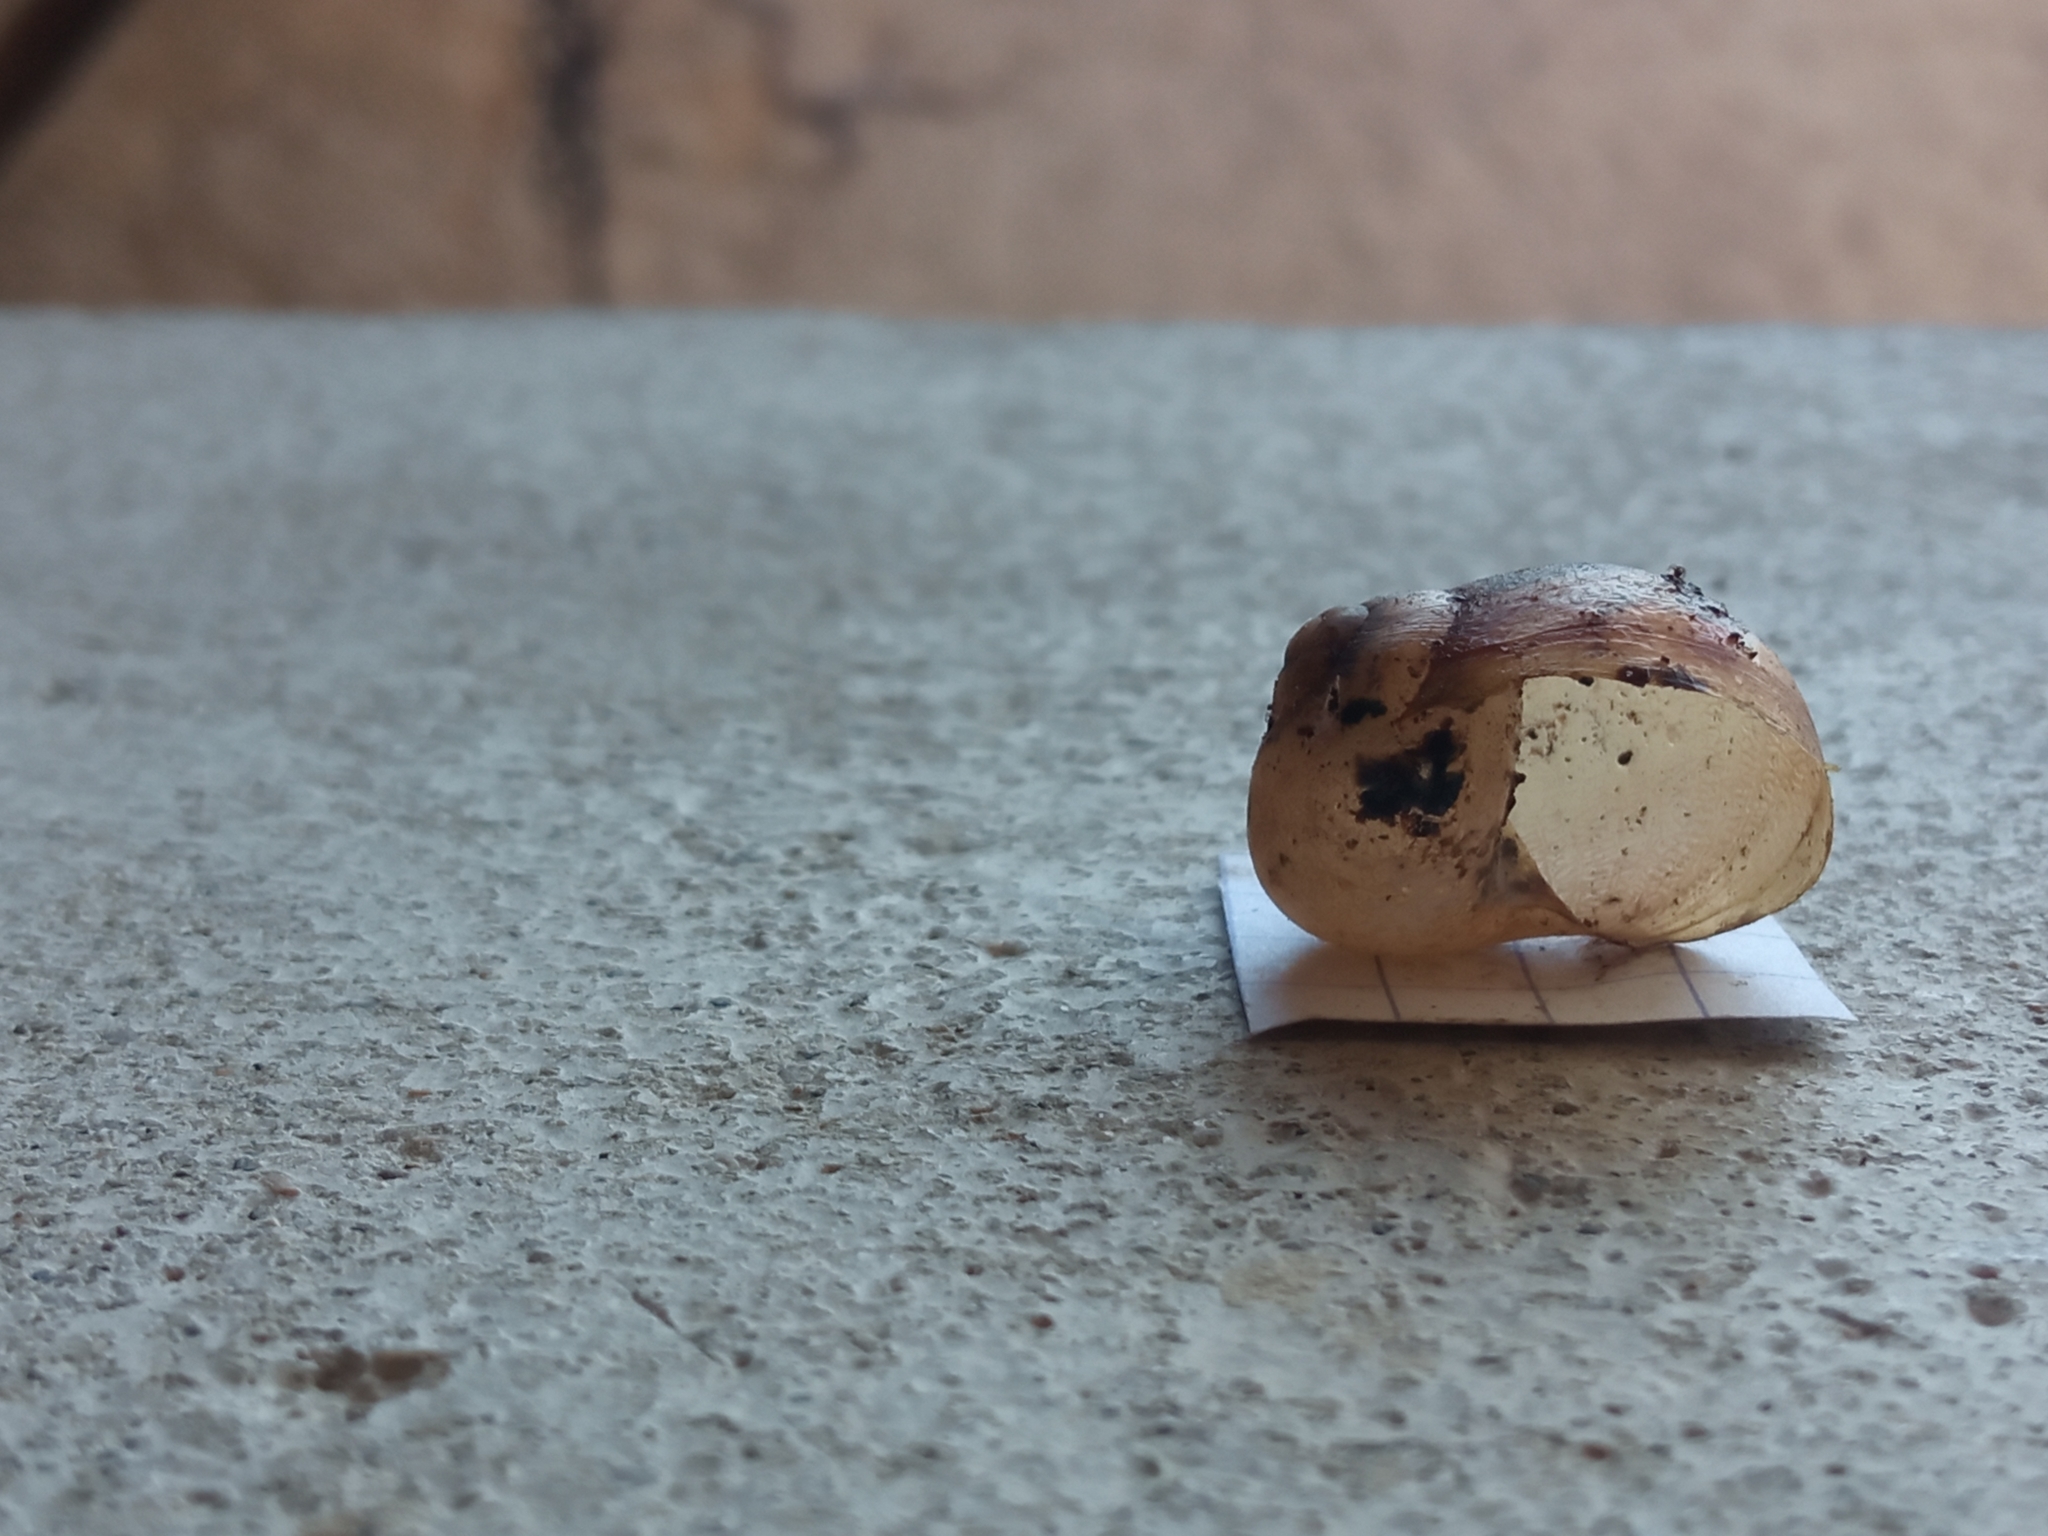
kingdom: Animalia
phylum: Mollusca
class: Gastropoda
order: Stylommatophora
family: Helicidae
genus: Cornu
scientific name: Cornu aspersum
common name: Brown garden snail
